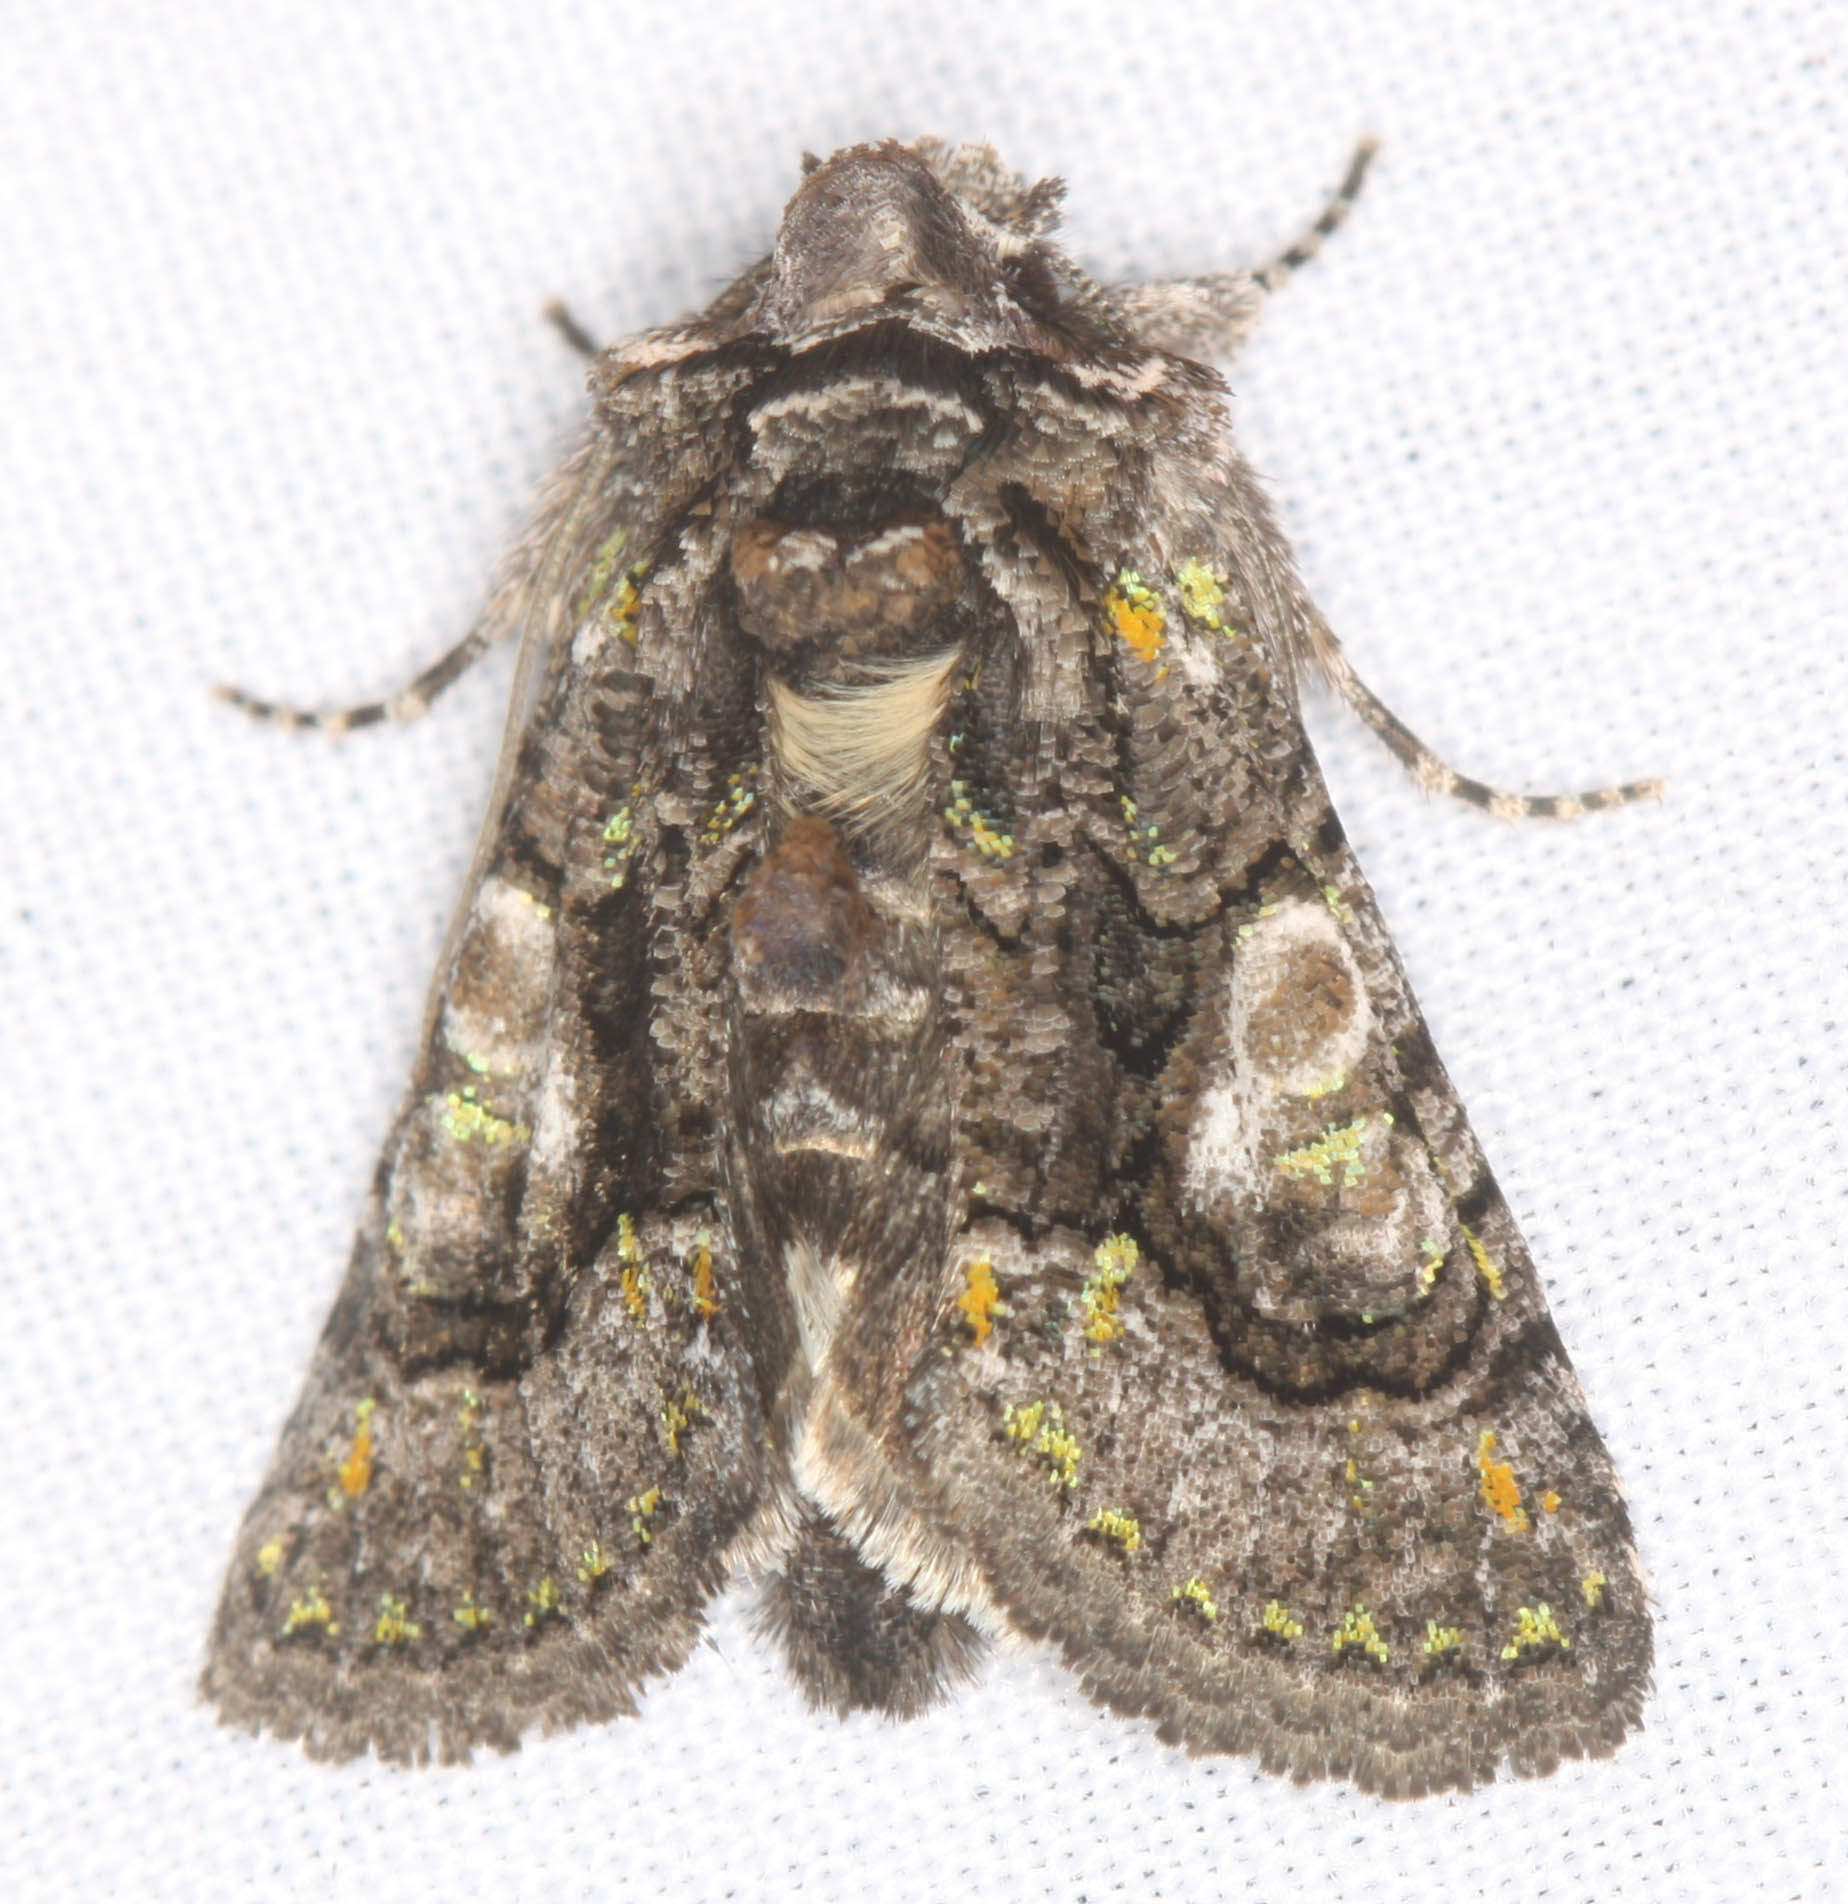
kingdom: Animalia
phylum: Arthropoda
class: Insecta
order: Lepidoptera
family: Noctuidae
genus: Behrensia
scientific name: Behrensia conchiformis
